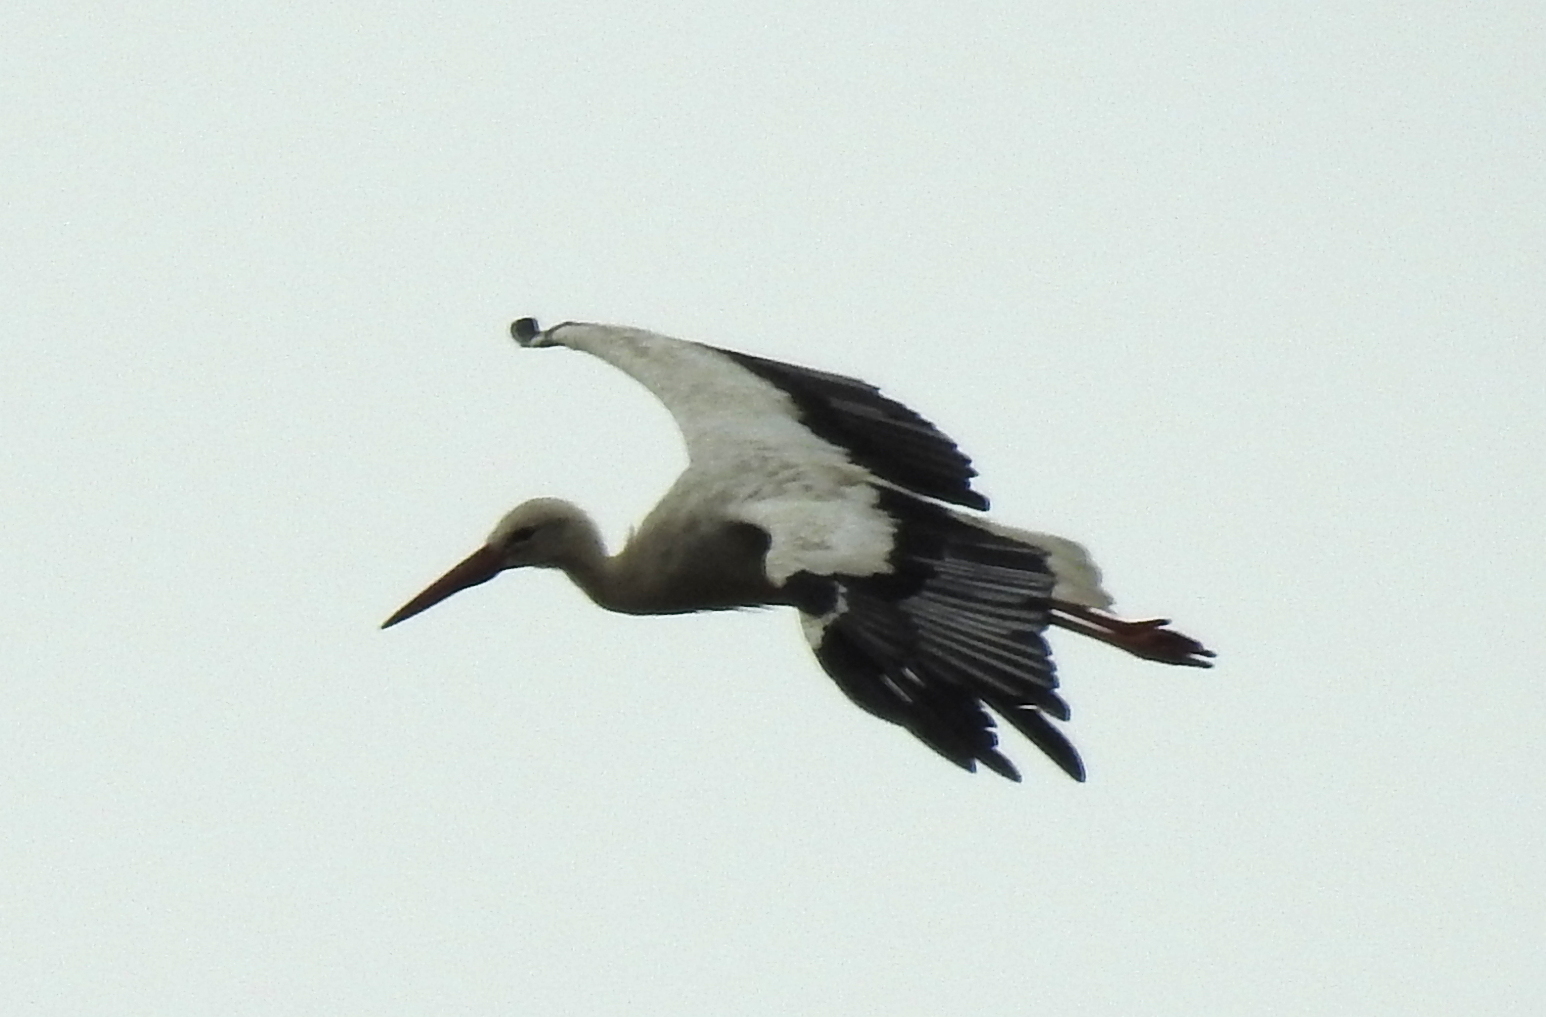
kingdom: Animalia
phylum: Chordata
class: Aves
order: Ciconiiformes
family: Ciconiidae
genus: Ciconia
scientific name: Ciconia ciconia
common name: White stork
